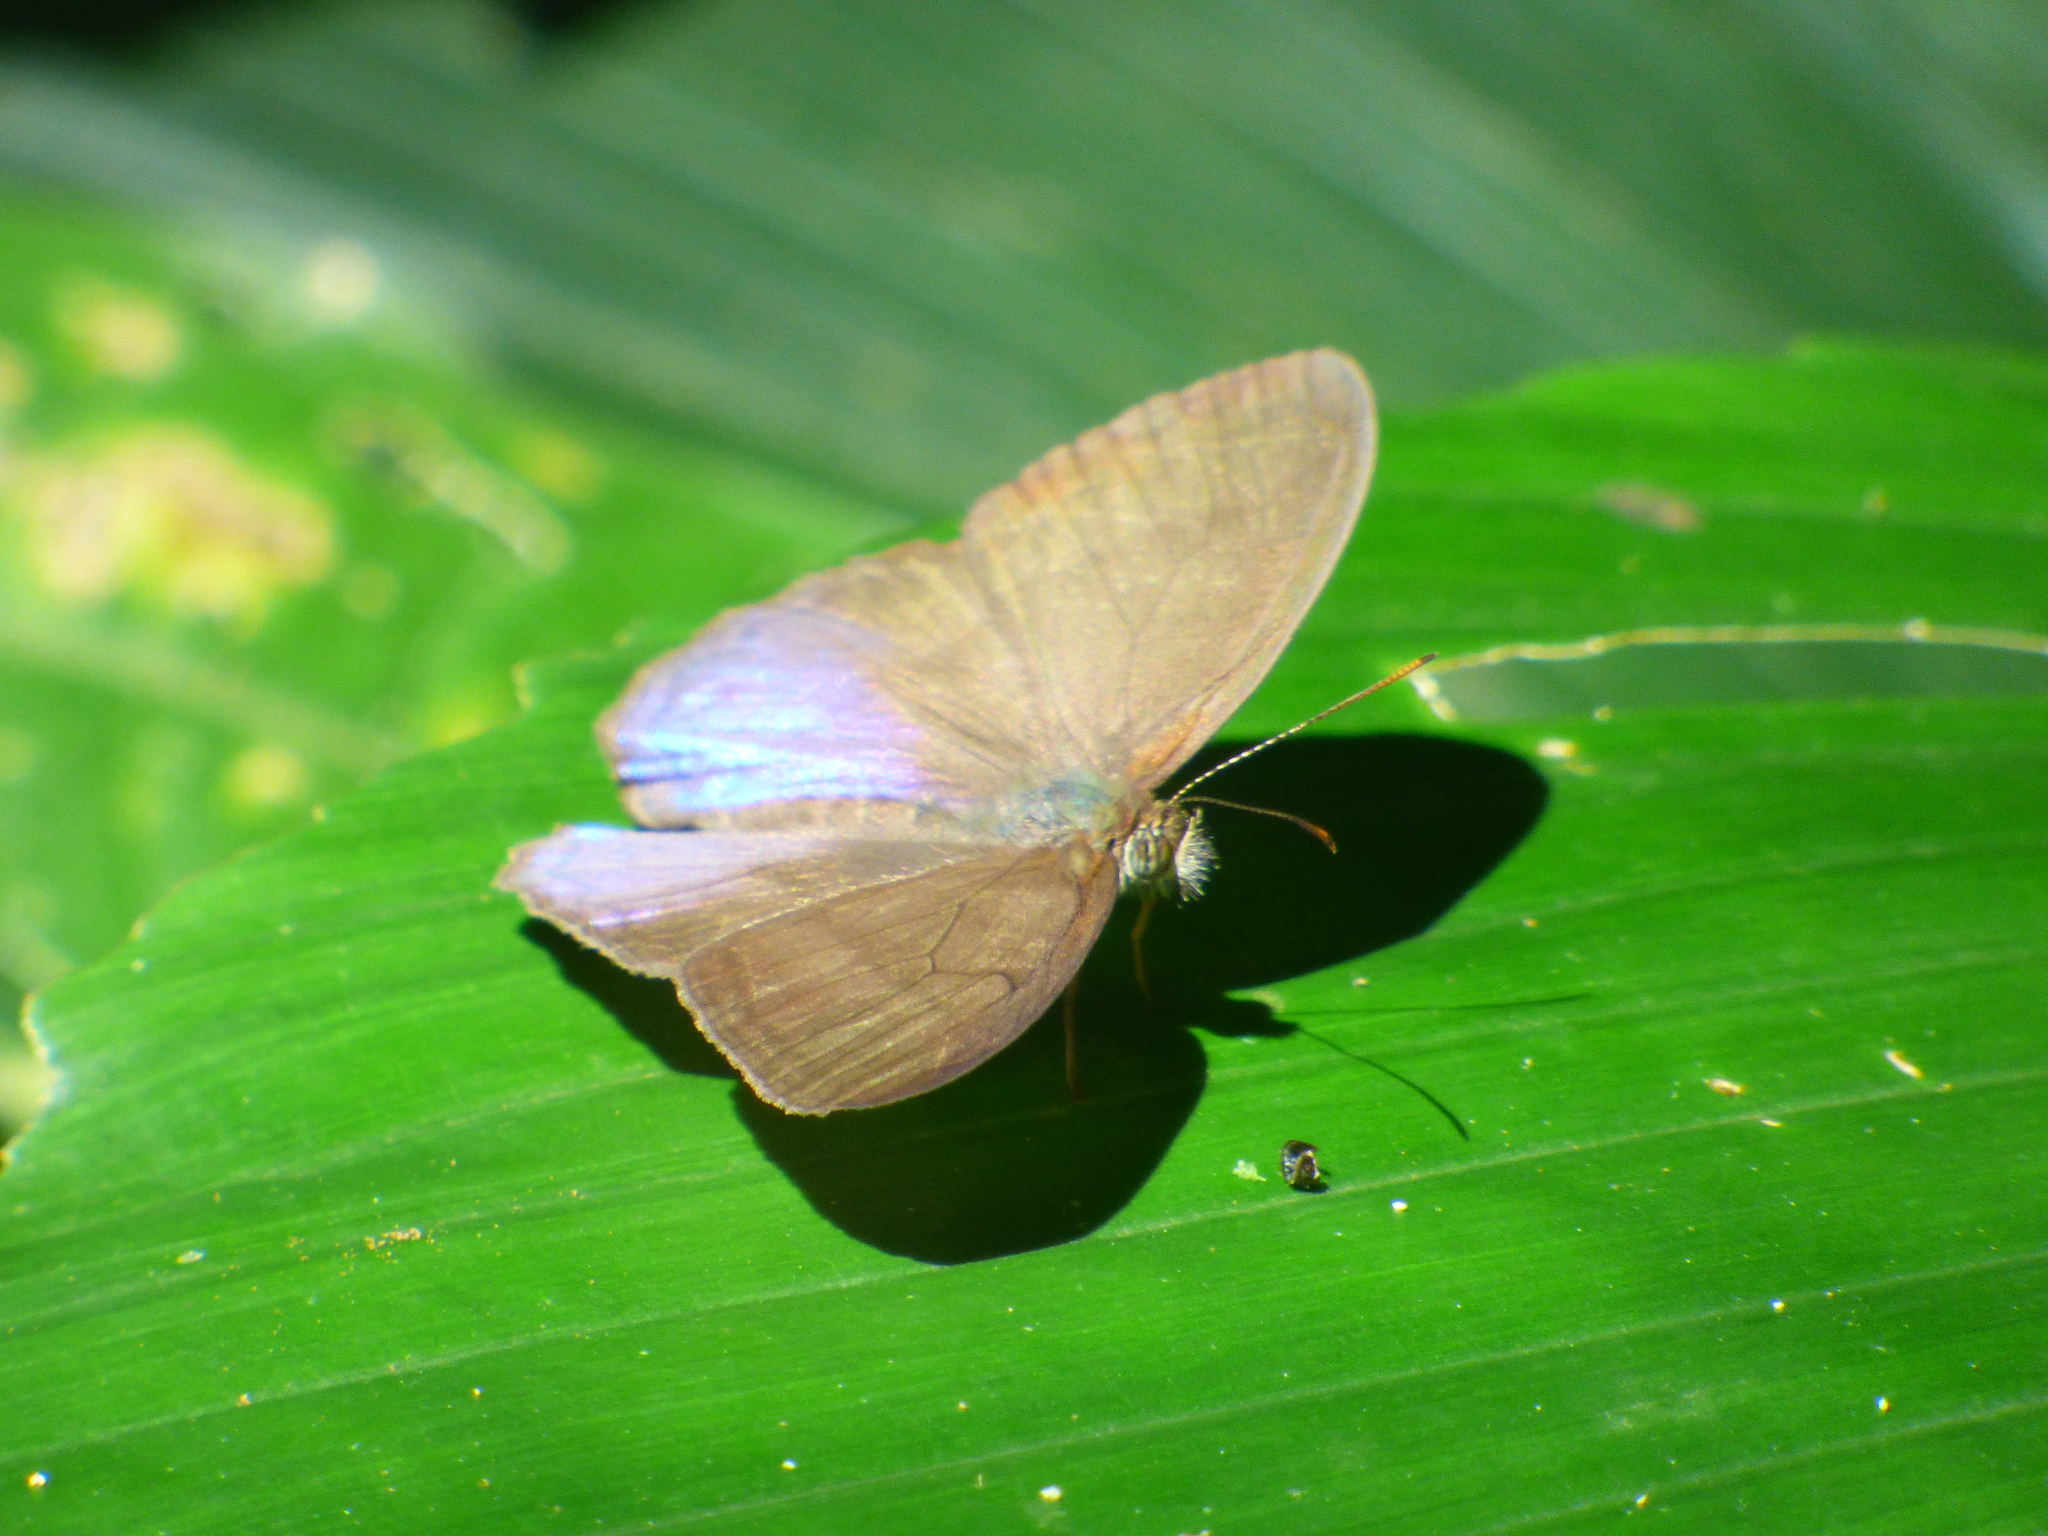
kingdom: Animalia
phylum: Arthropoda
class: Insecta
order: Lepidoptera
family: Nymphalidae
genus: Amiga
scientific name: Amiga arnaca
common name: Blue-topped satyr
